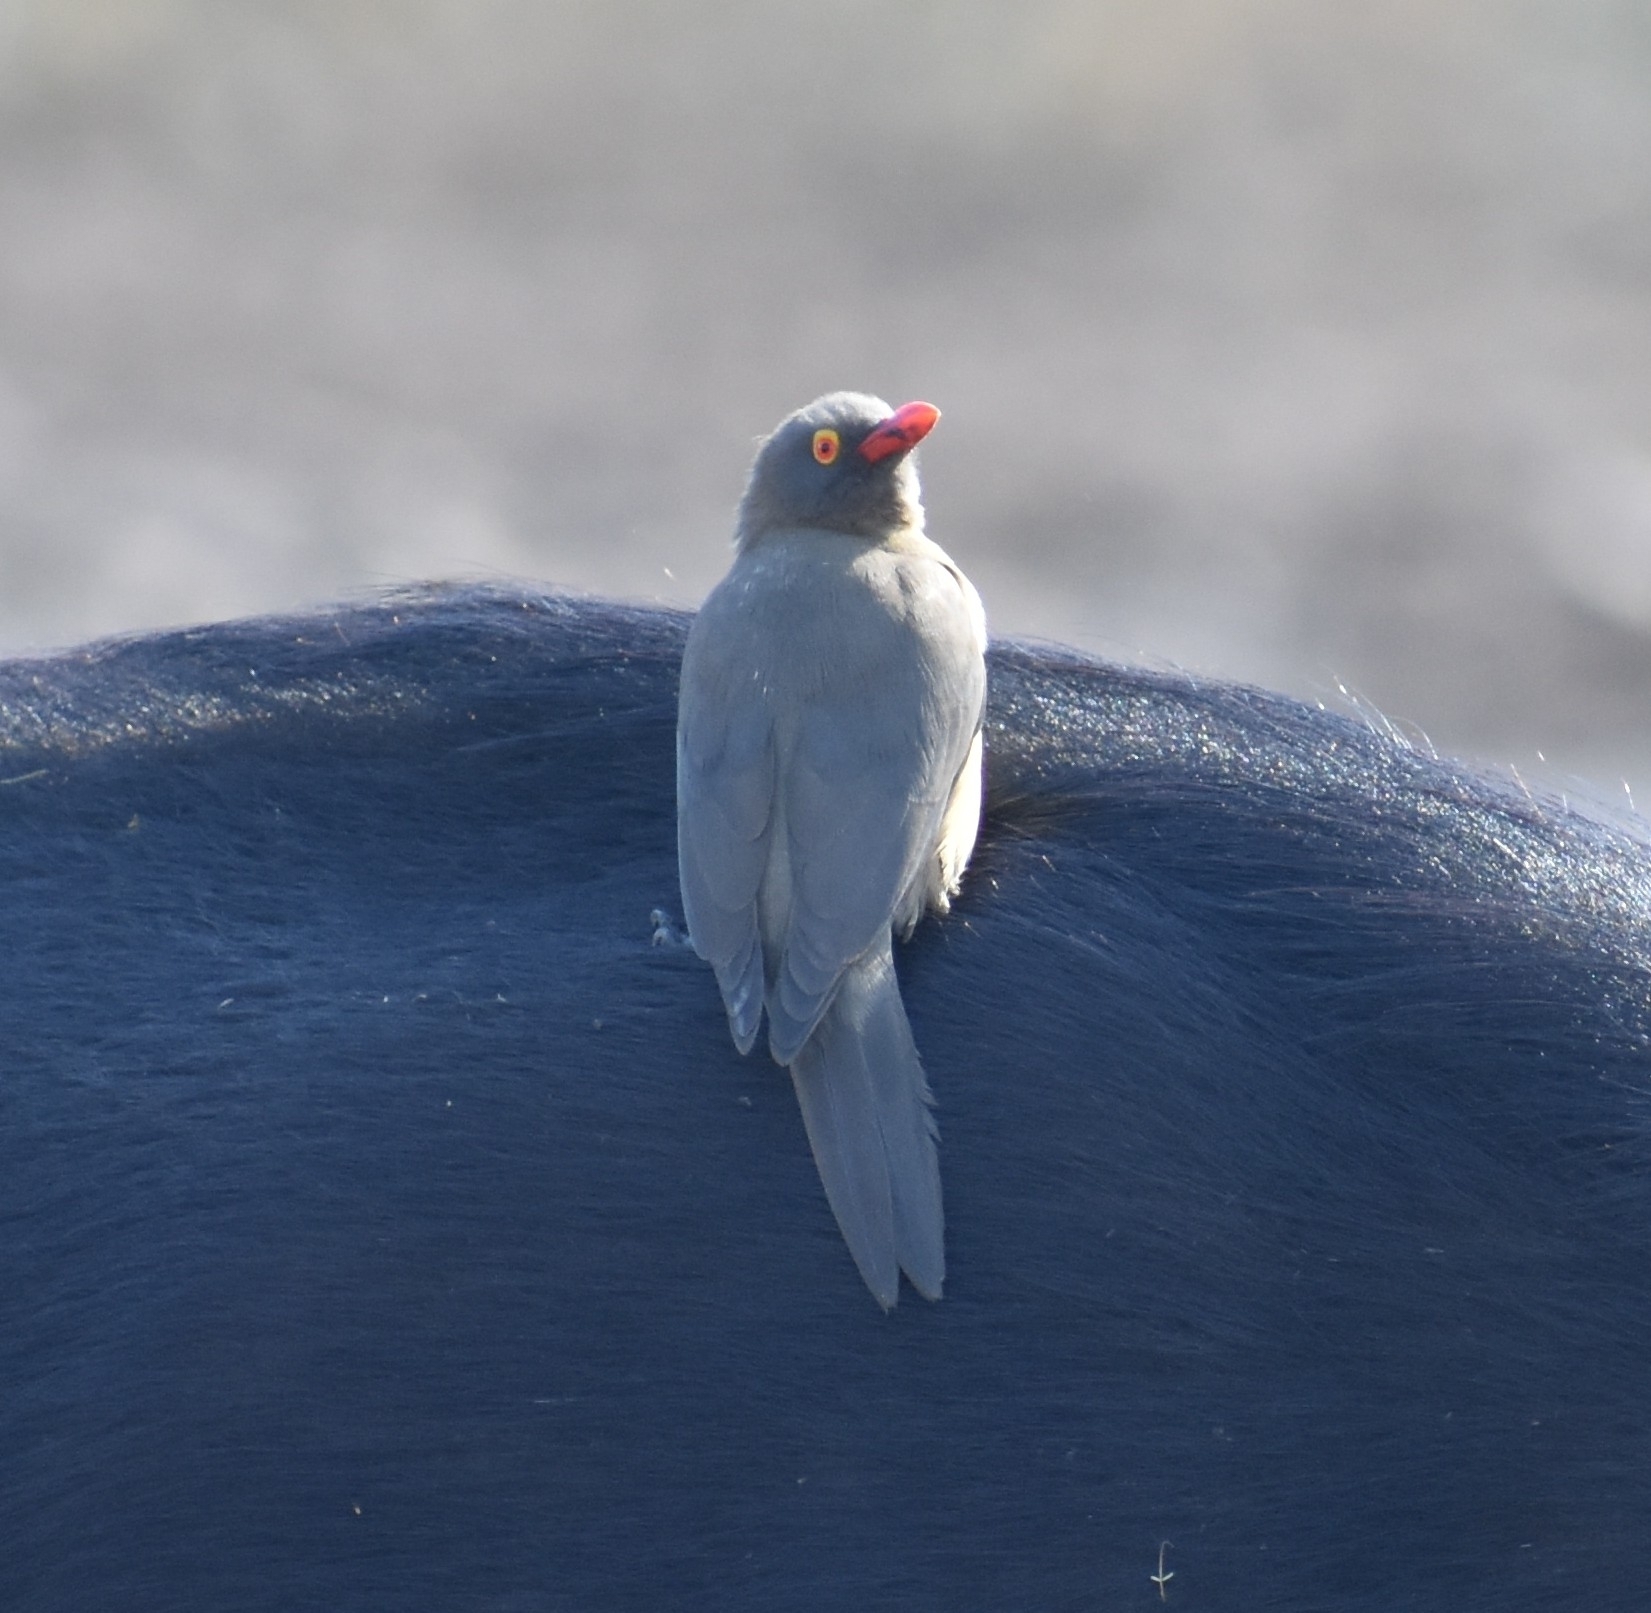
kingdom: Animalia
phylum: Chordata
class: Aves
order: Passeriformes
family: Buphagidae
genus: Buphagus
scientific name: Buphagus erythrorhynchus
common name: Red-billed oxpecker
